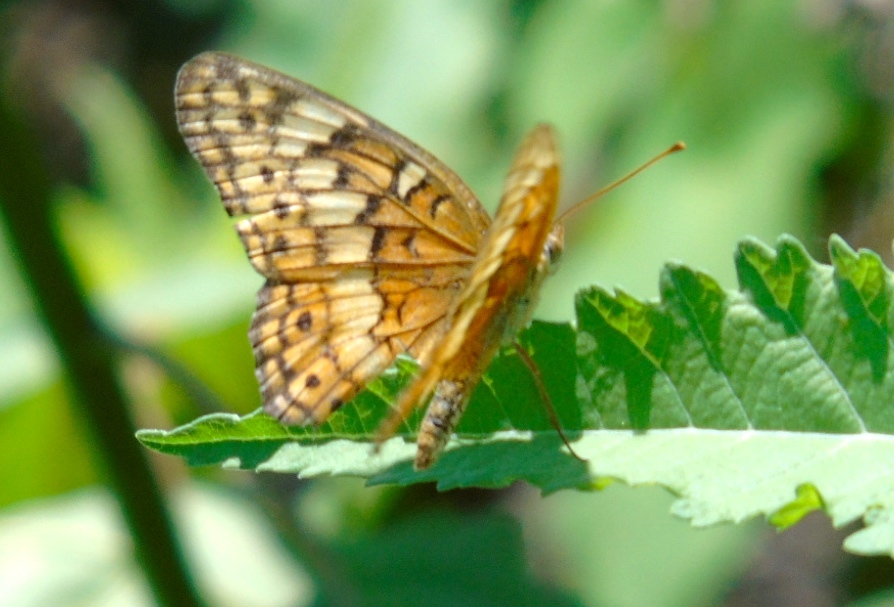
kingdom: Animalia
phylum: Arthropoda
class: Insecta
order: Lepidoptera
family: Nymphalidae
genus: Euptoieta
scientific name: Euptoieta claudia
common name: Variegated fritillary
